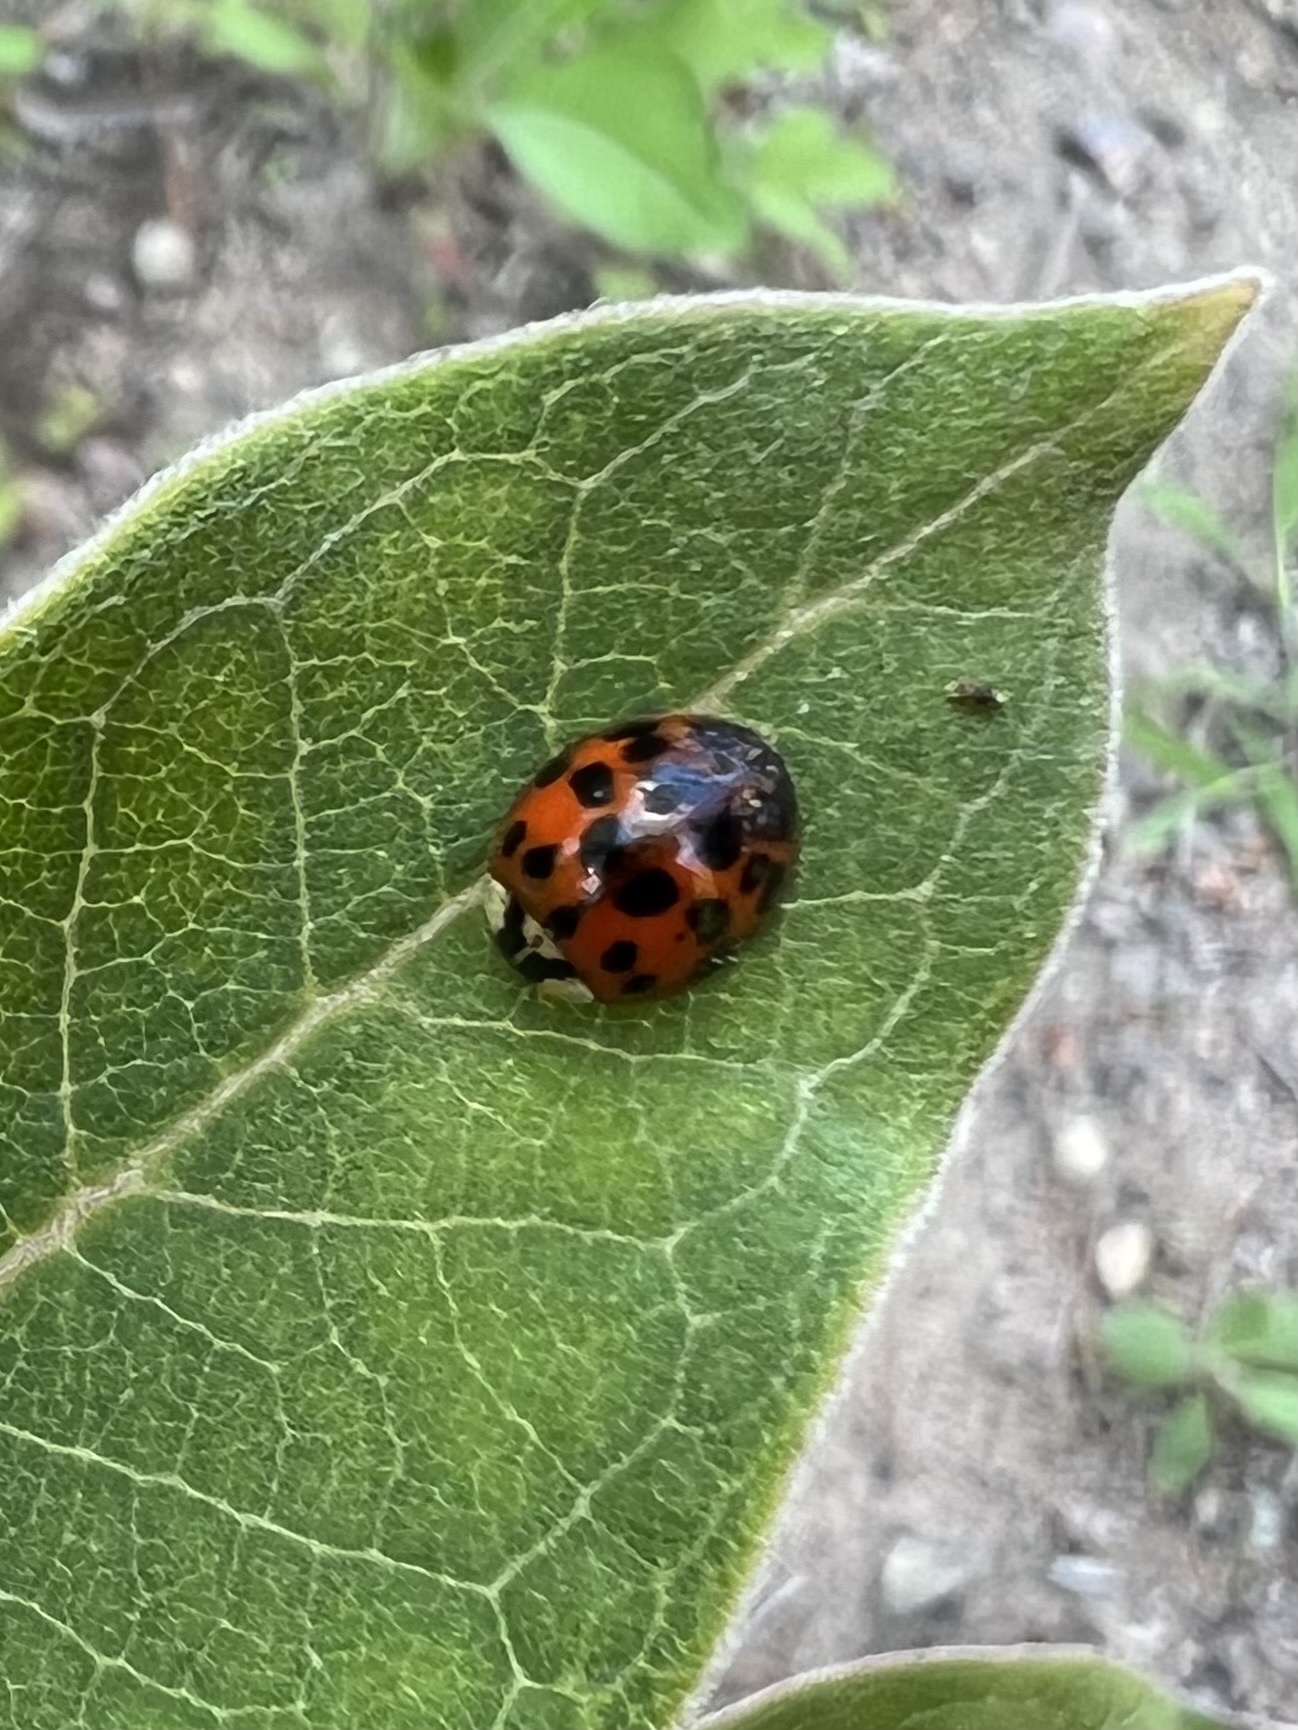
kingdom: Animalia
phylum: Arthropoda
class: Insecta
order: Coleoptera
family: Coccinellidae
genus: Harmonia
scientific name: Harmonia axyridis
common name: Harlequin ladybird
